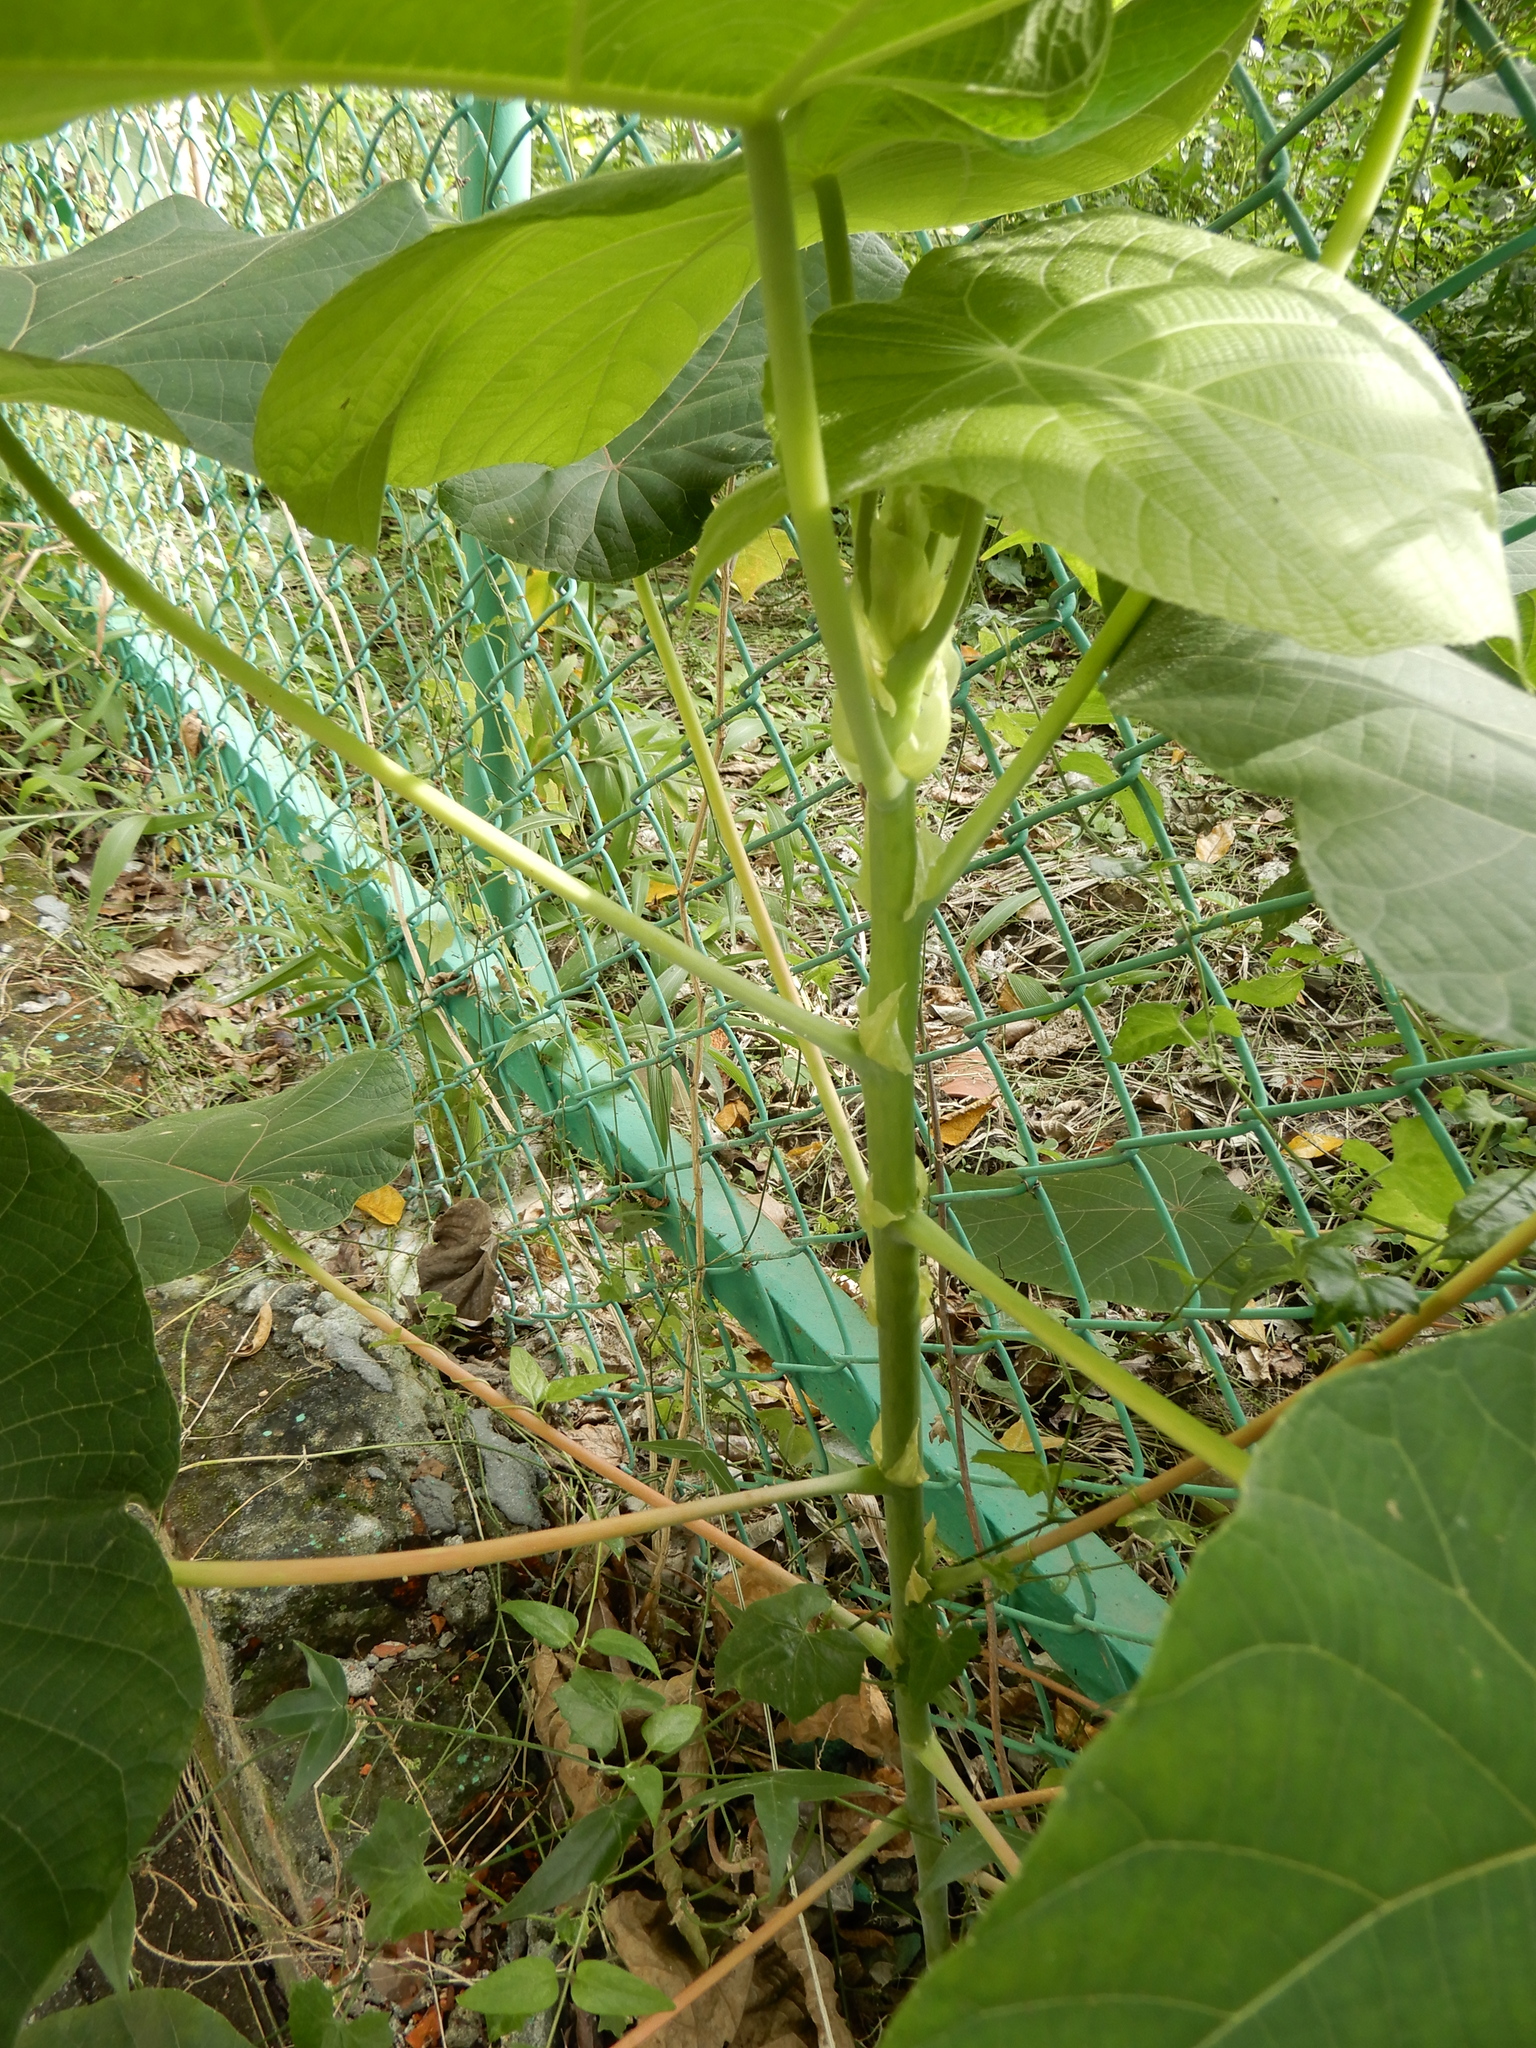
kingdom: Plantae
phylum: Tracheophyta
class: Magnoliopsida
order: Malpighiales
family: Euphorbiaceae
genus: Macaranga
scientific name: Macaranga tanarius
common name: Parasol leaf tree
